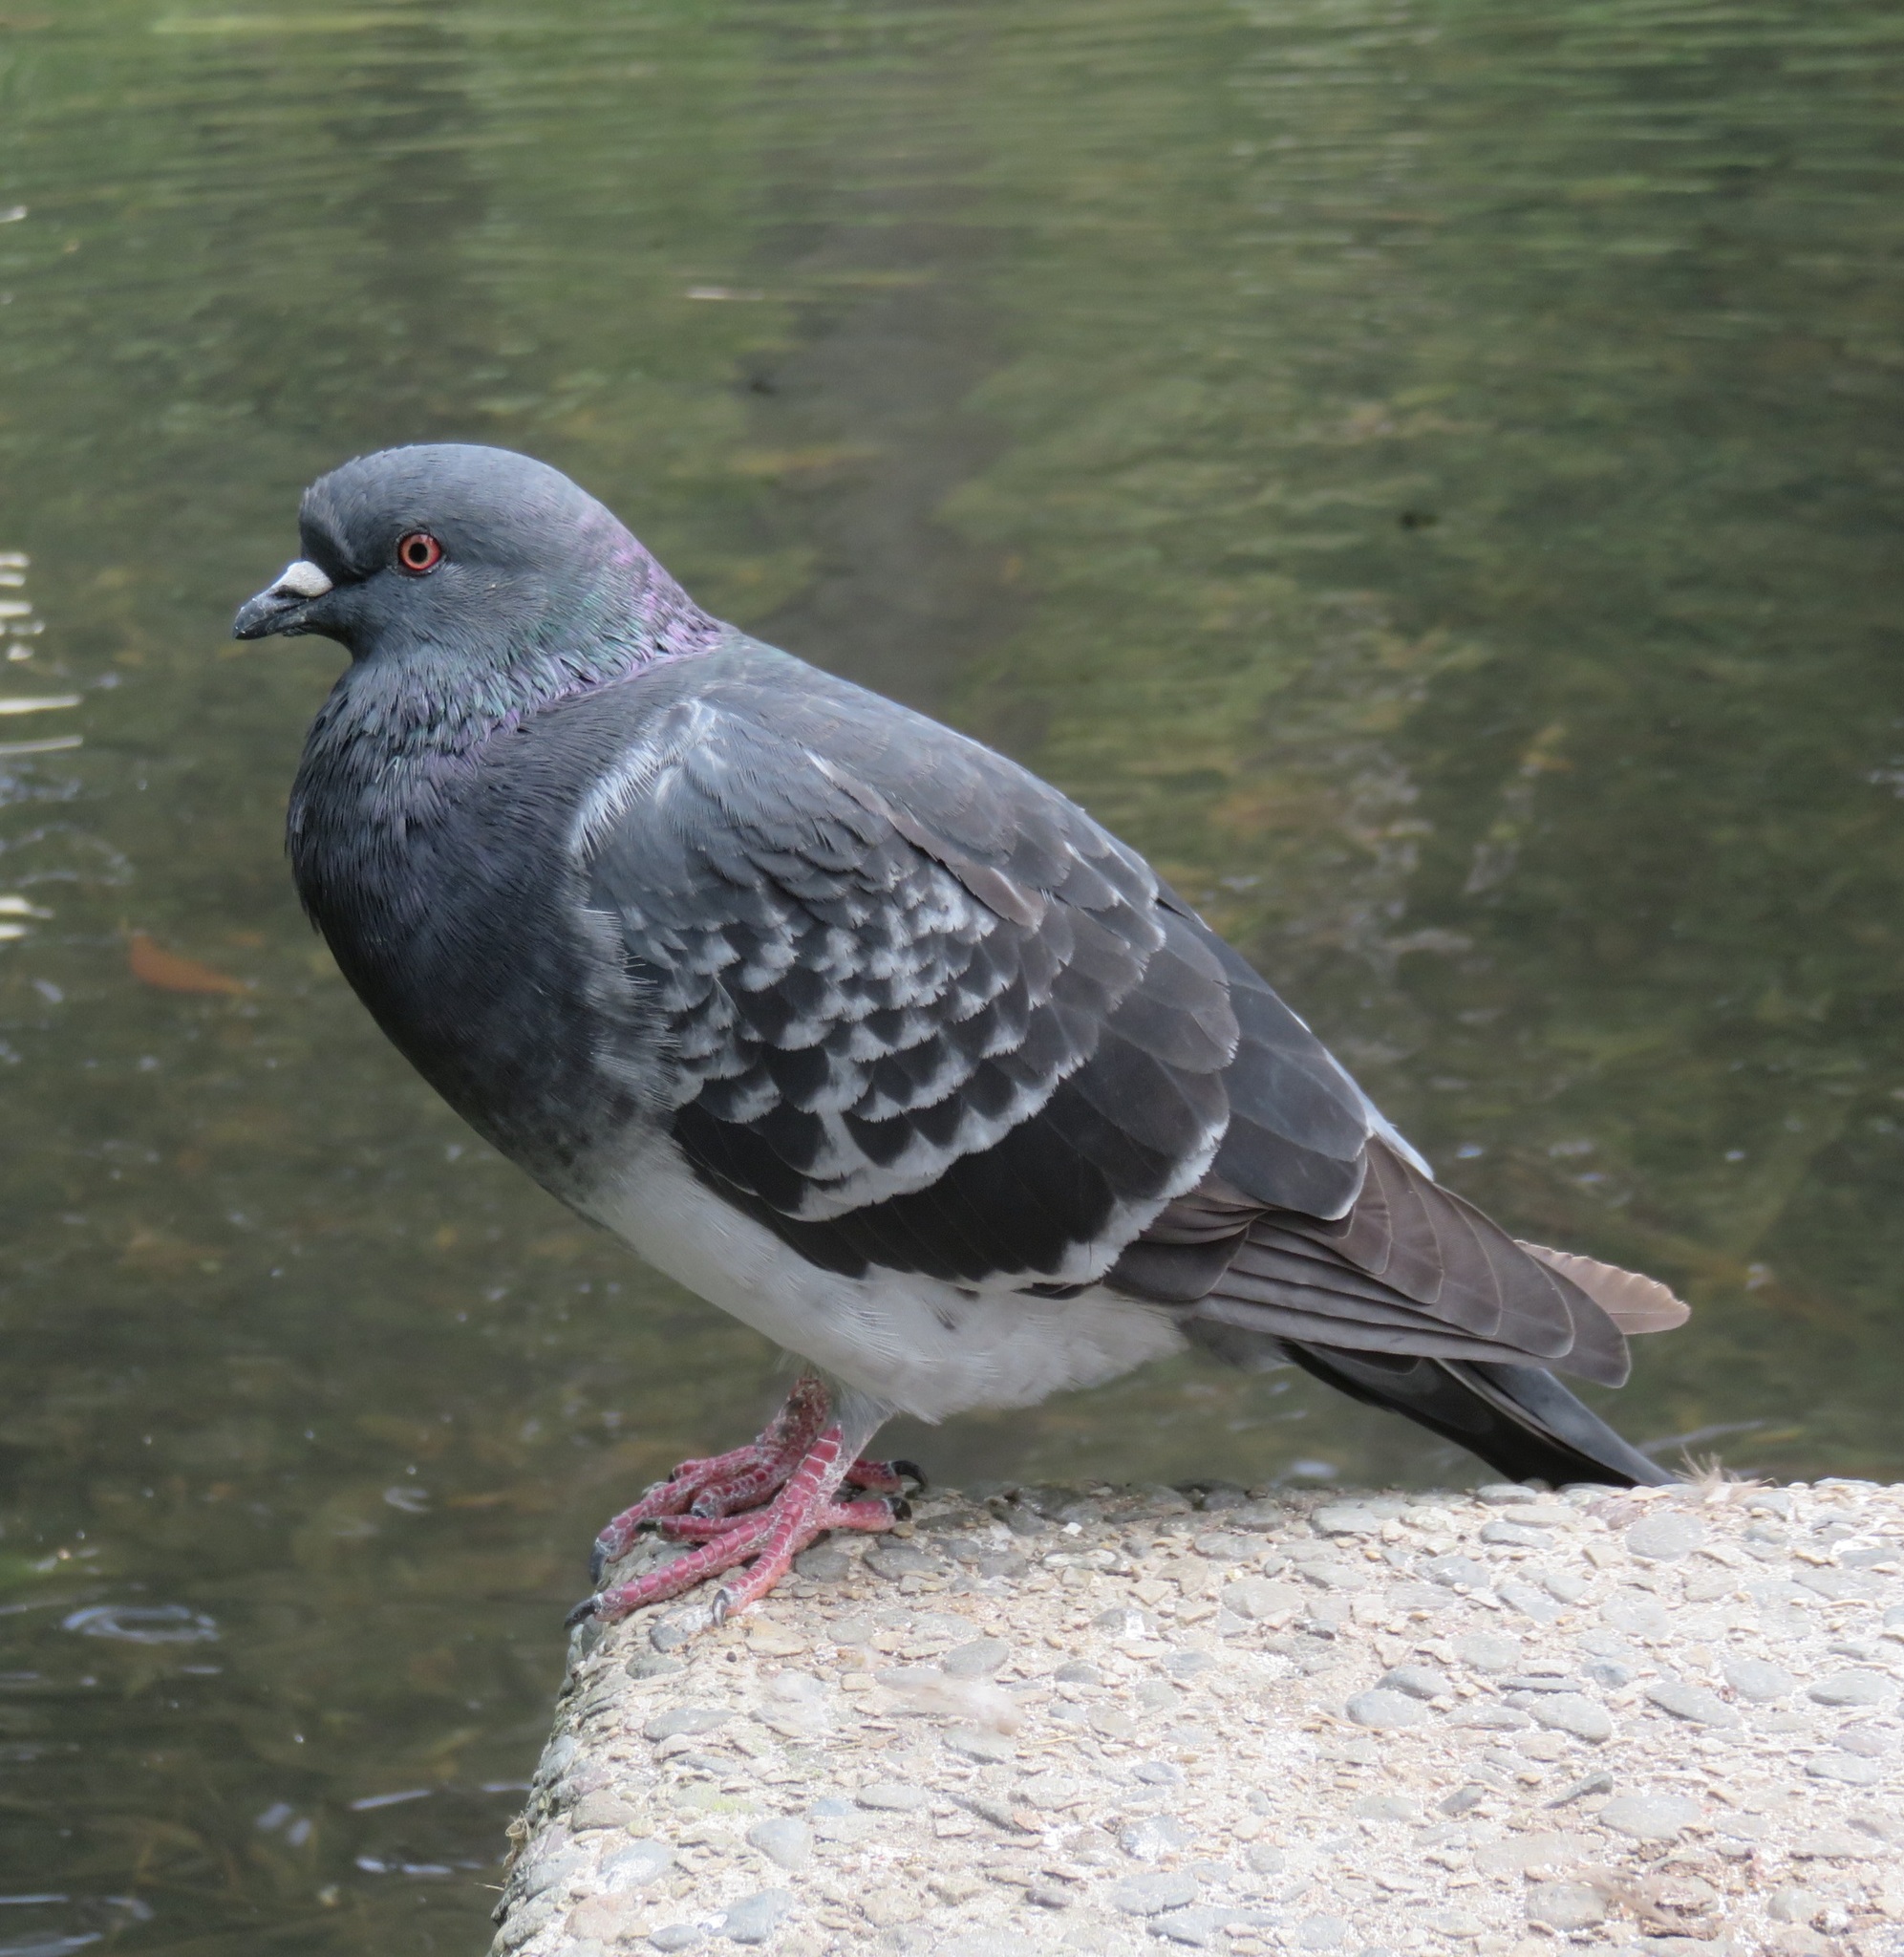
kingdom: Animalia
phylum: Chordata
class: Aves
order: Columbiformes
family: Columbidae
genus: Columba
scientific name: Columba livia
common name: Rock pigeon
